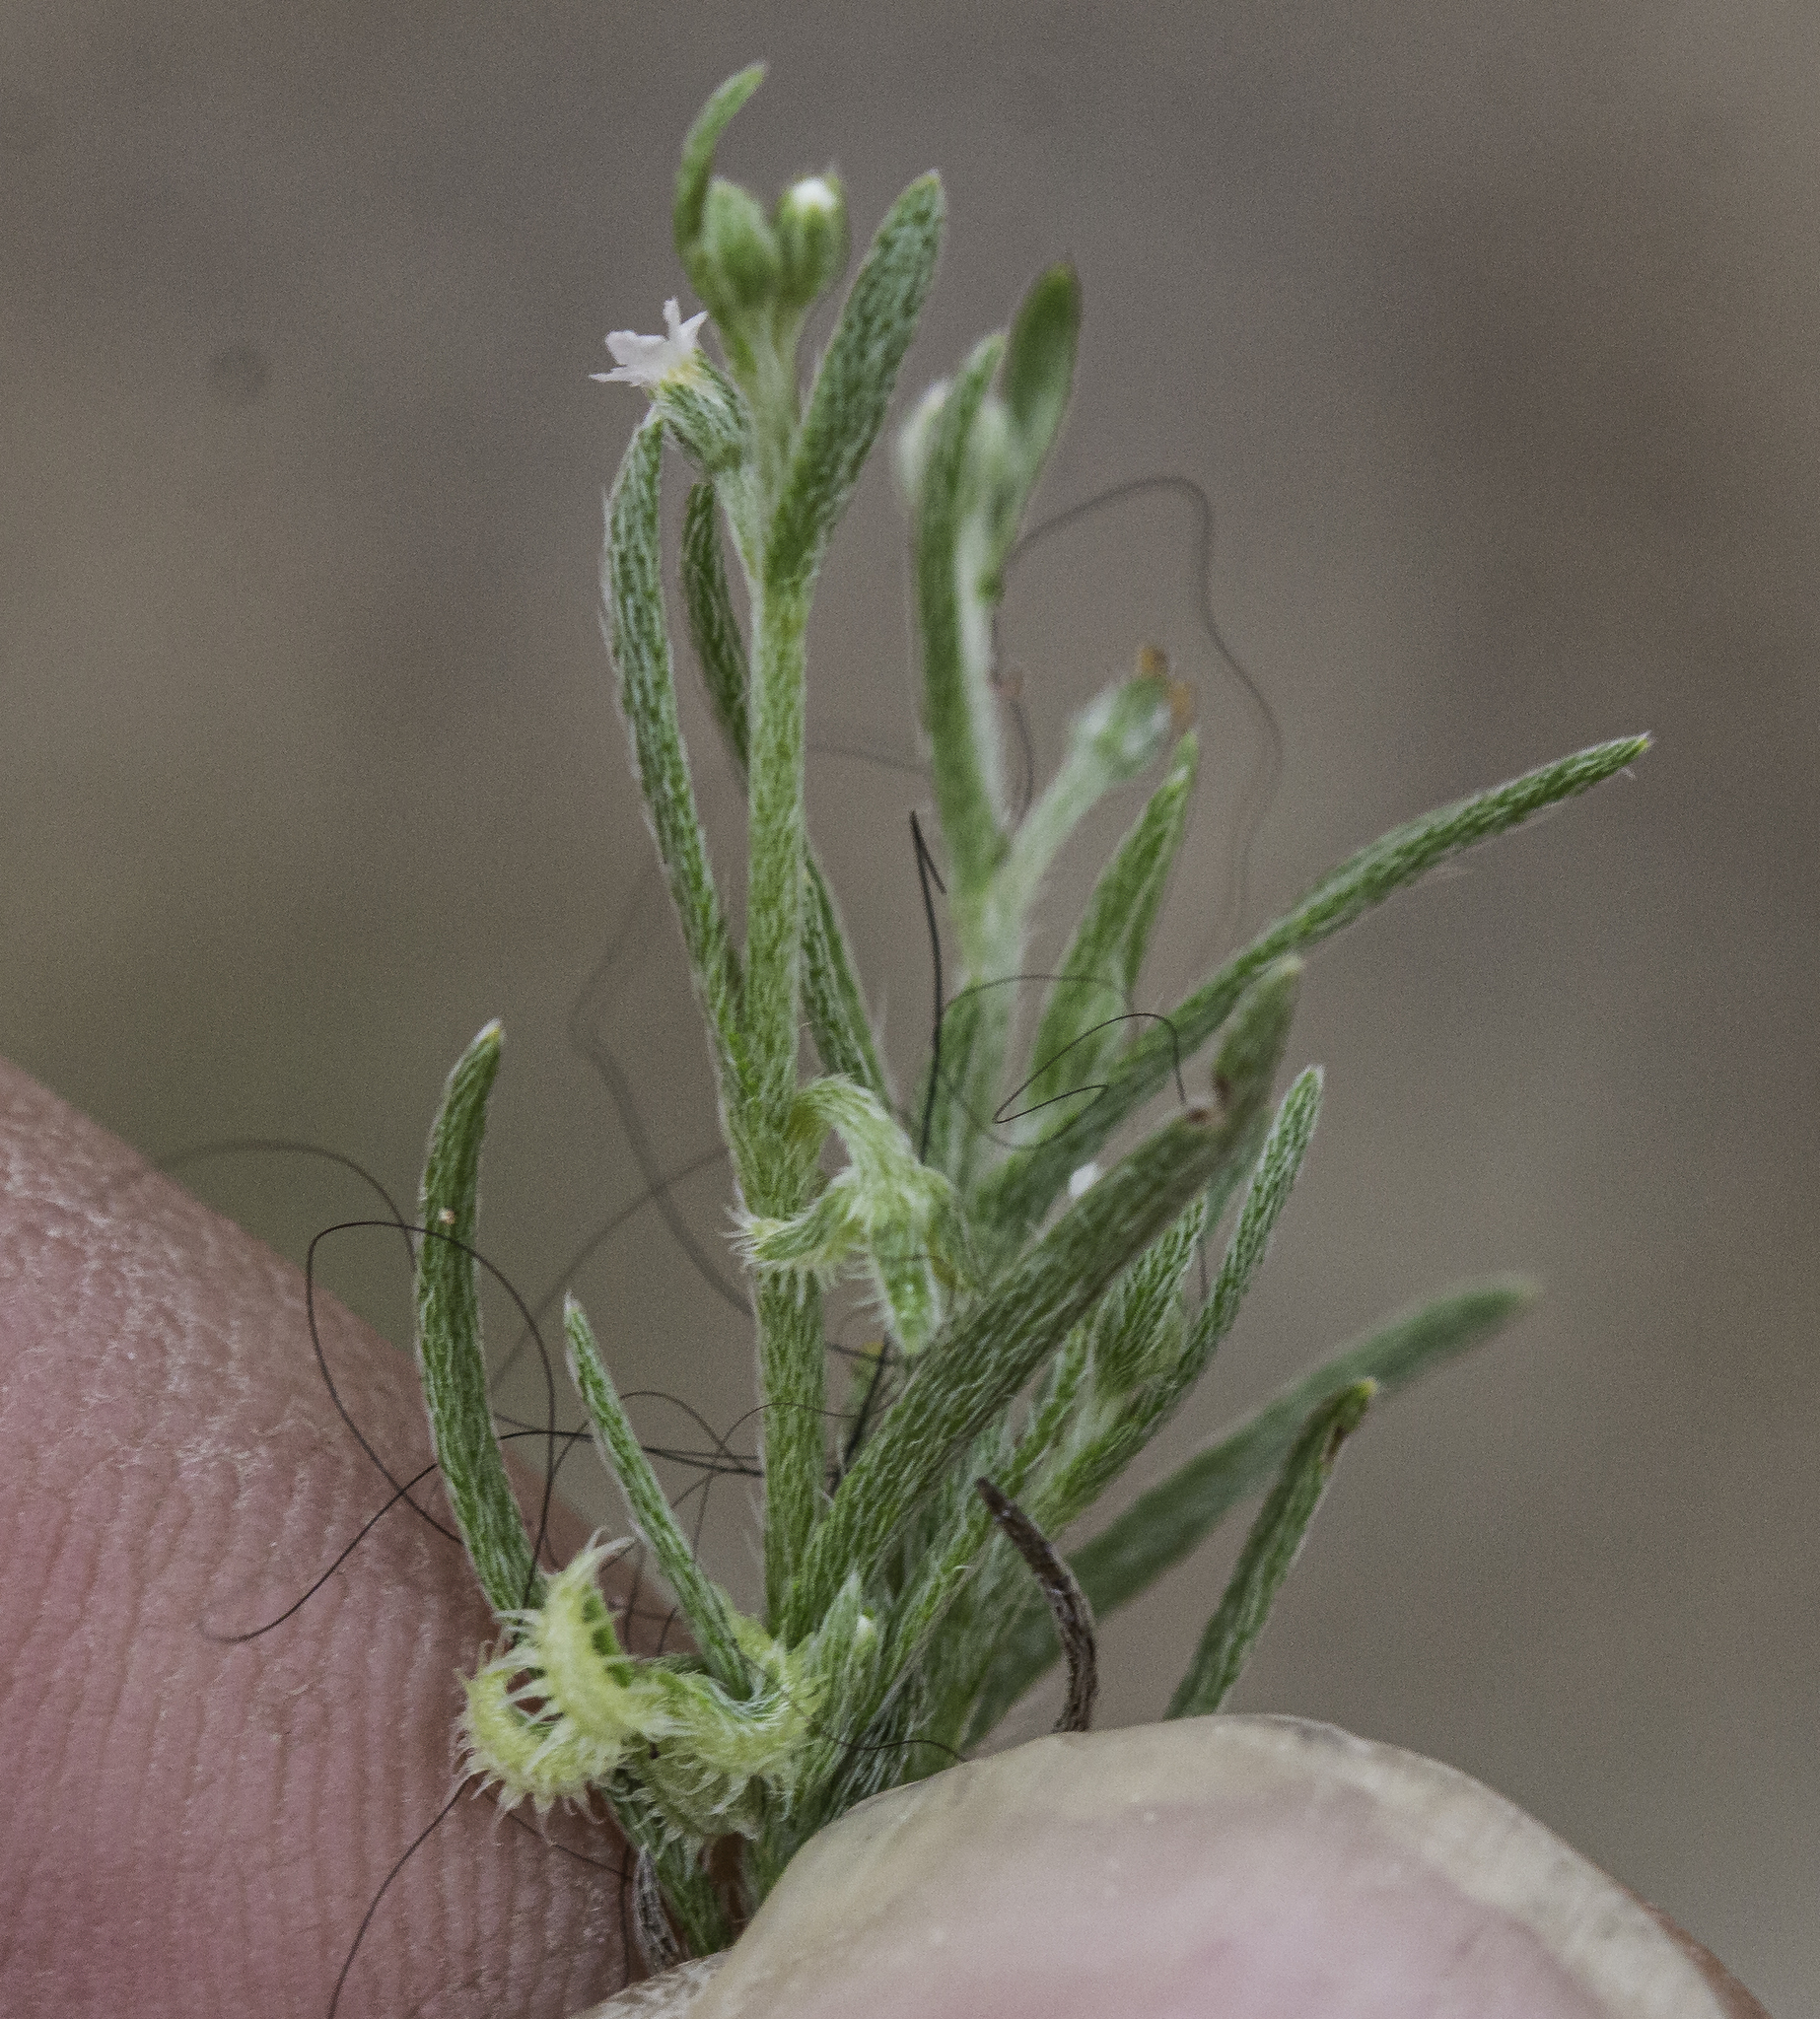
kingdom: Plantae
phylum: Tracheophyta
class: Magnoliopsida
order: Boraginales
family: Boraginaceae
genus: Pectocarya
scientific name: Pectocarya recurvata
